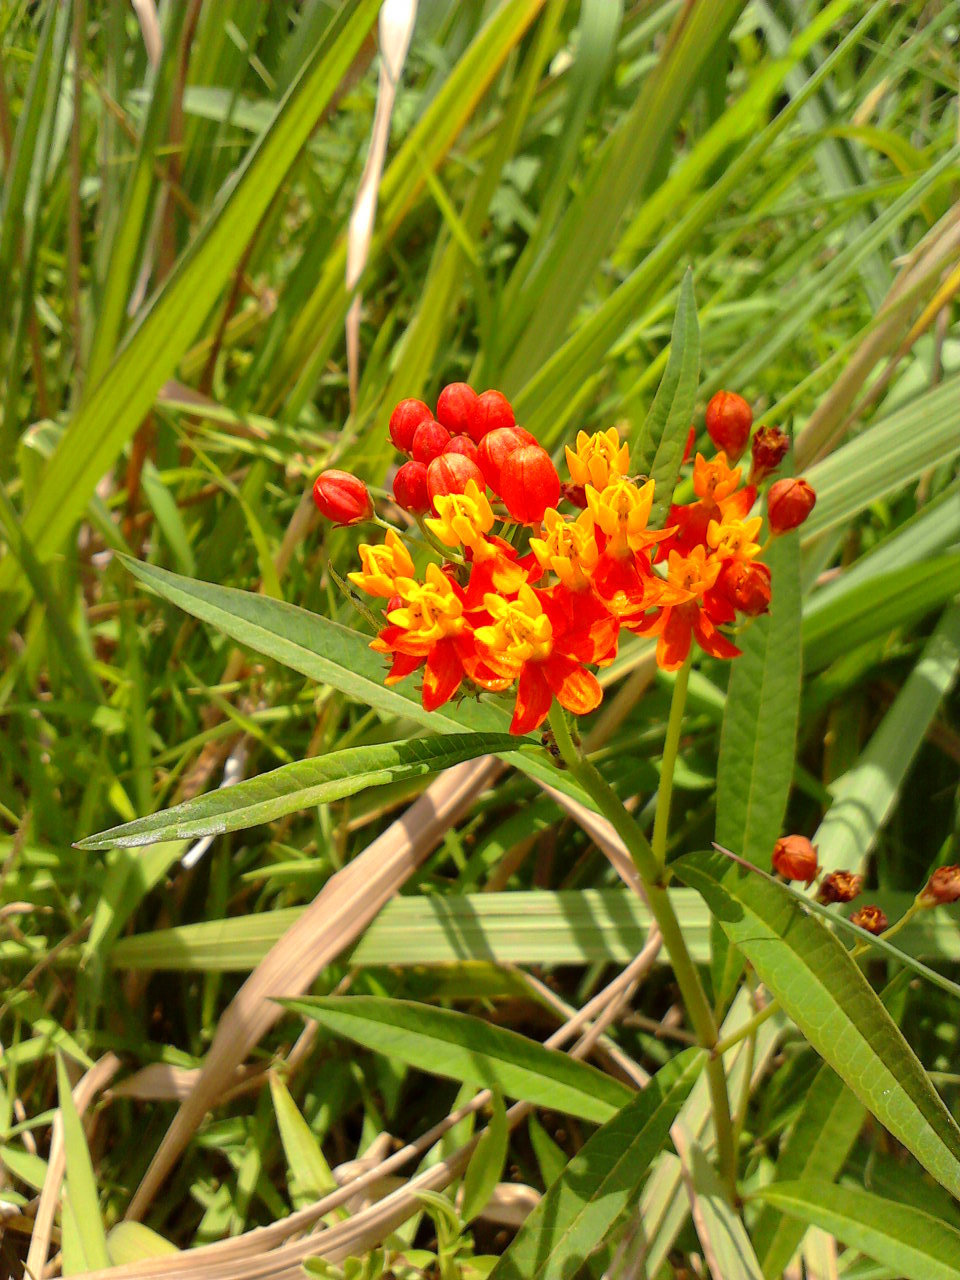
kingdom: Plantae
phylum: Tracheophyta
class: Magnoliopsida
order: Gentianales
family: Apocynaceae
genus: Asclepias
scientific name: Asclepias curassavica
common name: Bloodflower
